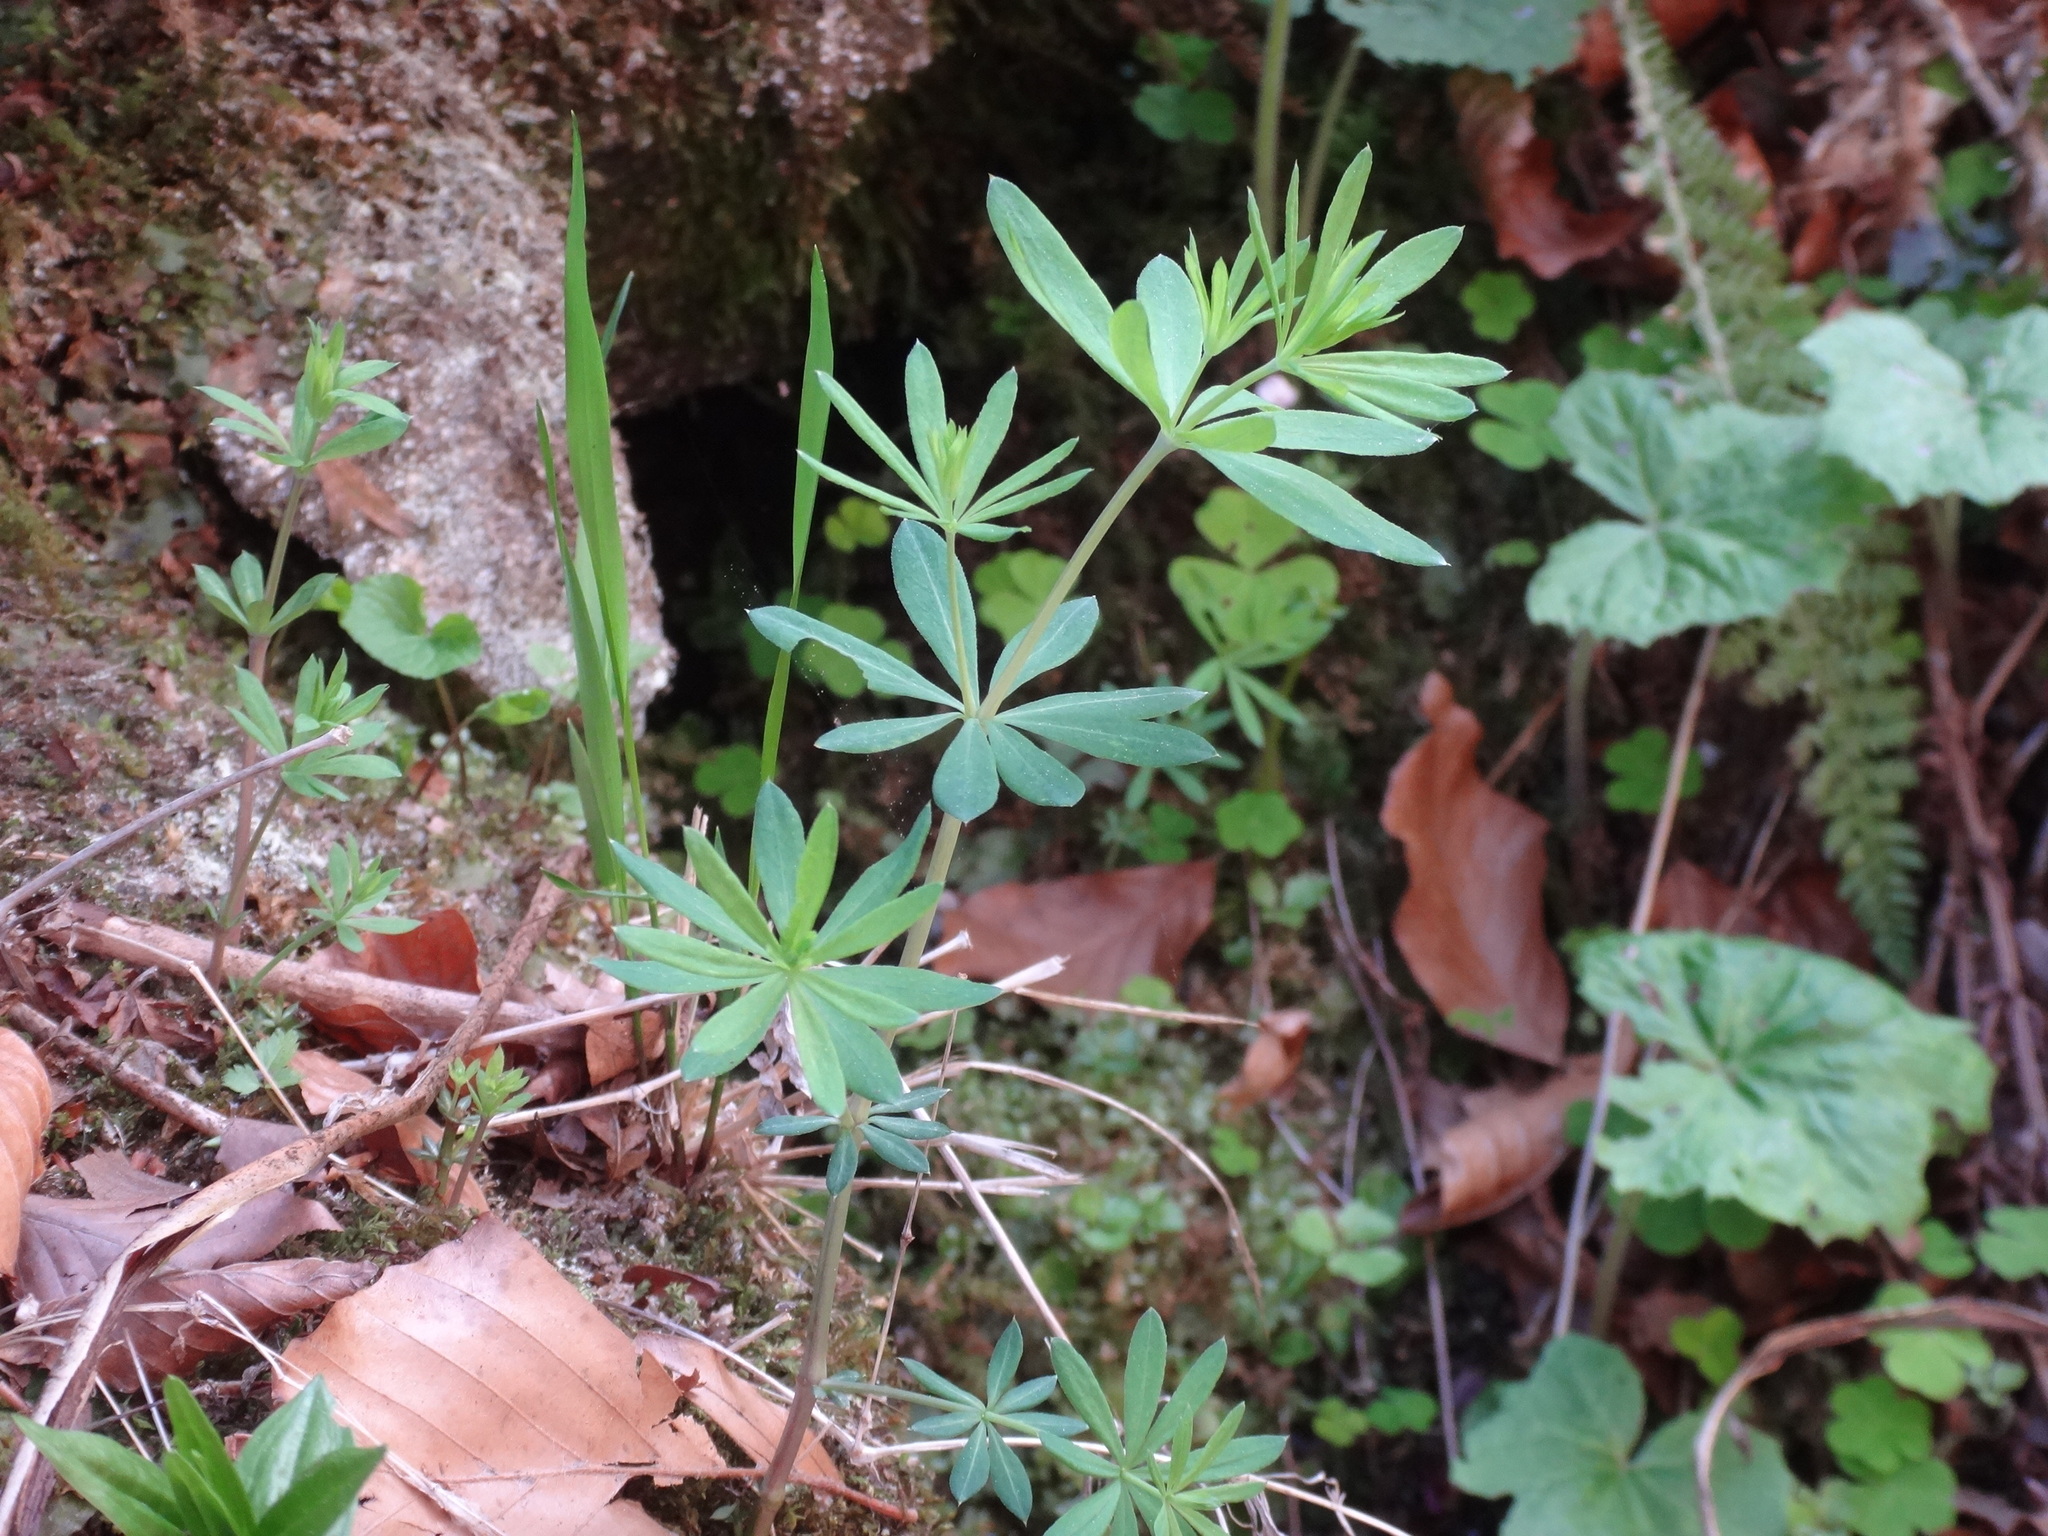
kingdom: Plantae
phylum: Tracheophyta
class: Magnoliopsida
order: Gentianales
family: Rubiaceae
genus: Galium
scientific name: Galium sylvaticum
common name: Wood bedstraw
